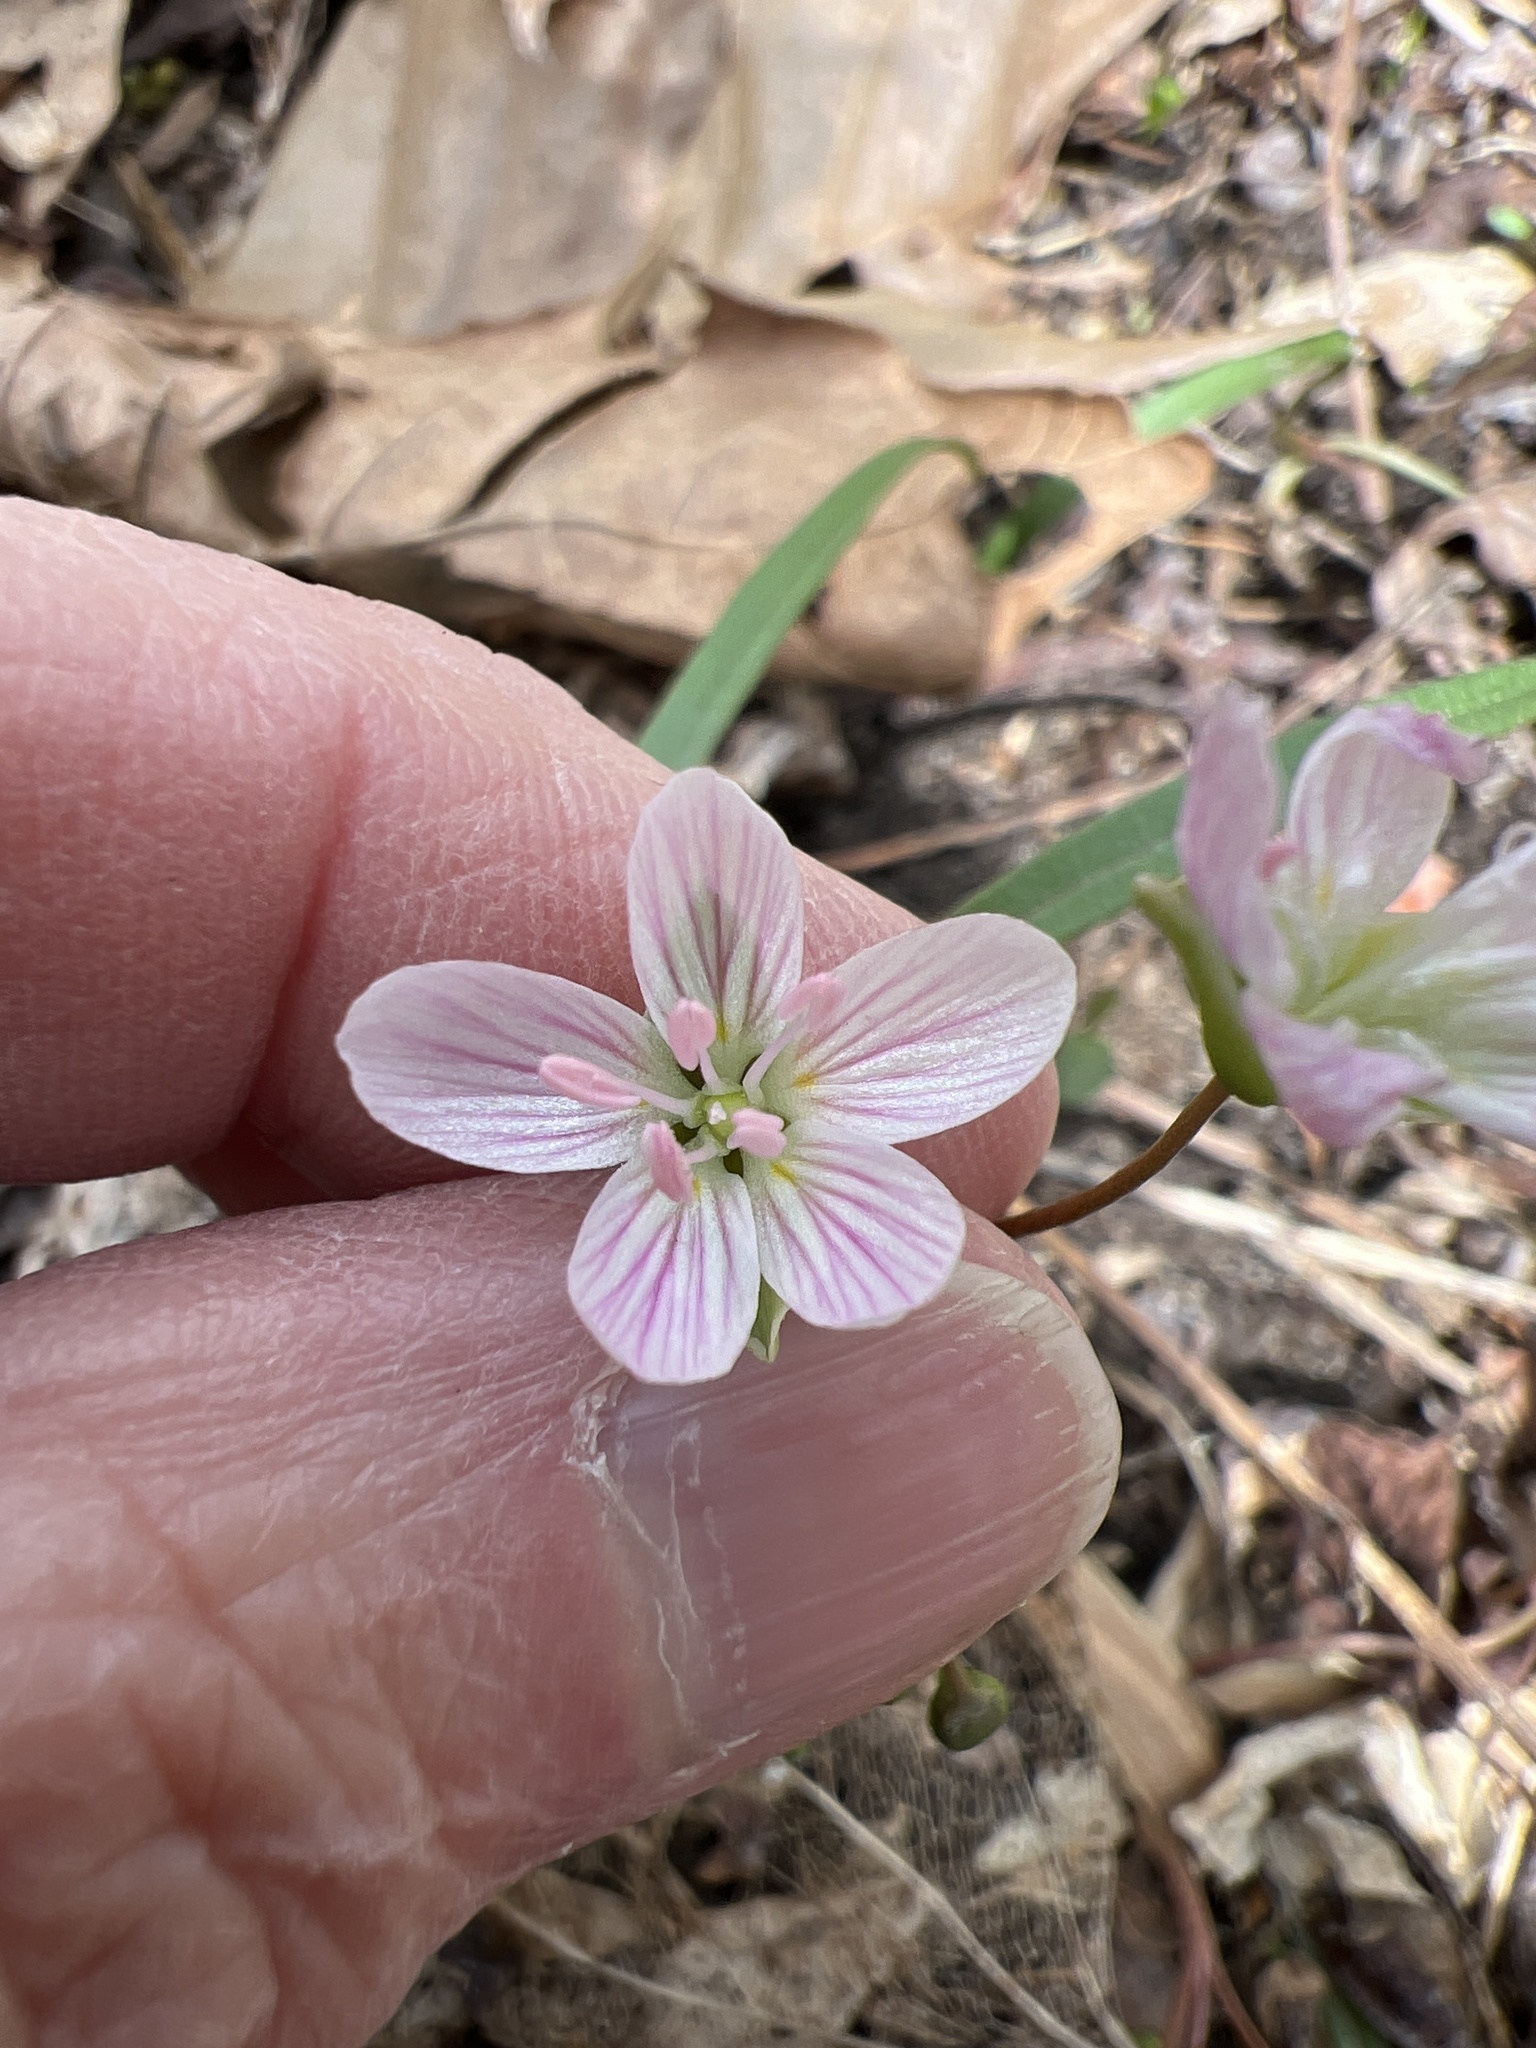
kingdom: Plantae
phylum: Tracheophyta
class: Magnoliopsida
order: Caryophyllales
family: Montiaceae
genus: Claytonia
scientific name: Claytonia virginica
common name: Virginia springbeauty
